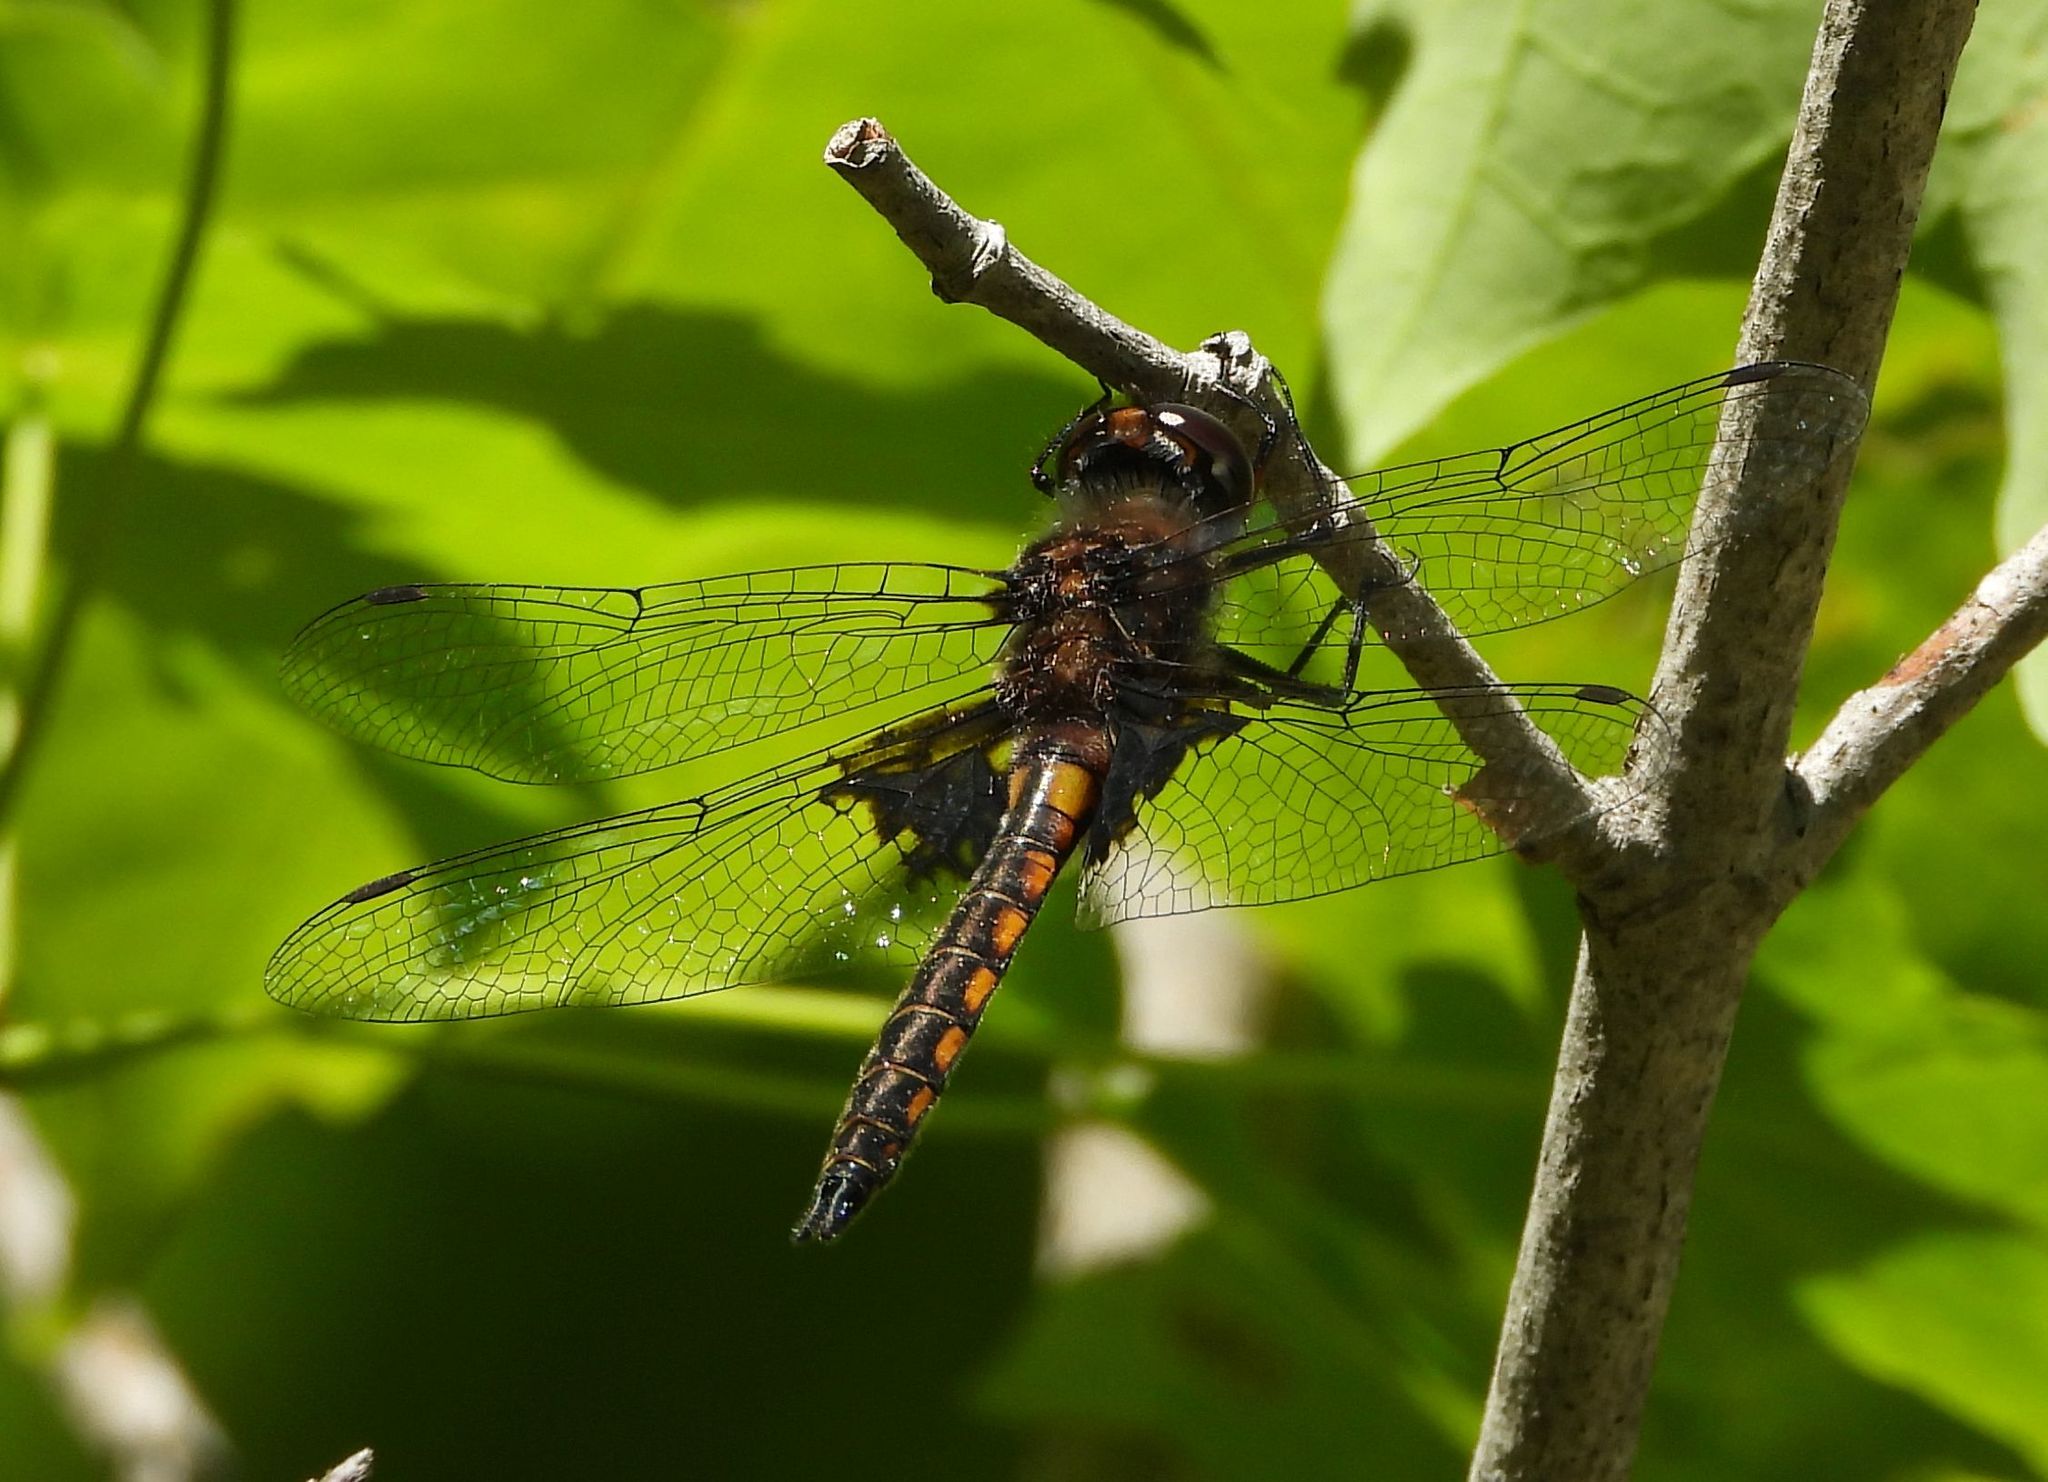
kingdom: Animalia
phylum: Arthropoda
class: Insecta
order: Odonata
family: Corduliidae
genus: Epitheca
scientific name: Epitheca cynosura
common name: Common baskettail
